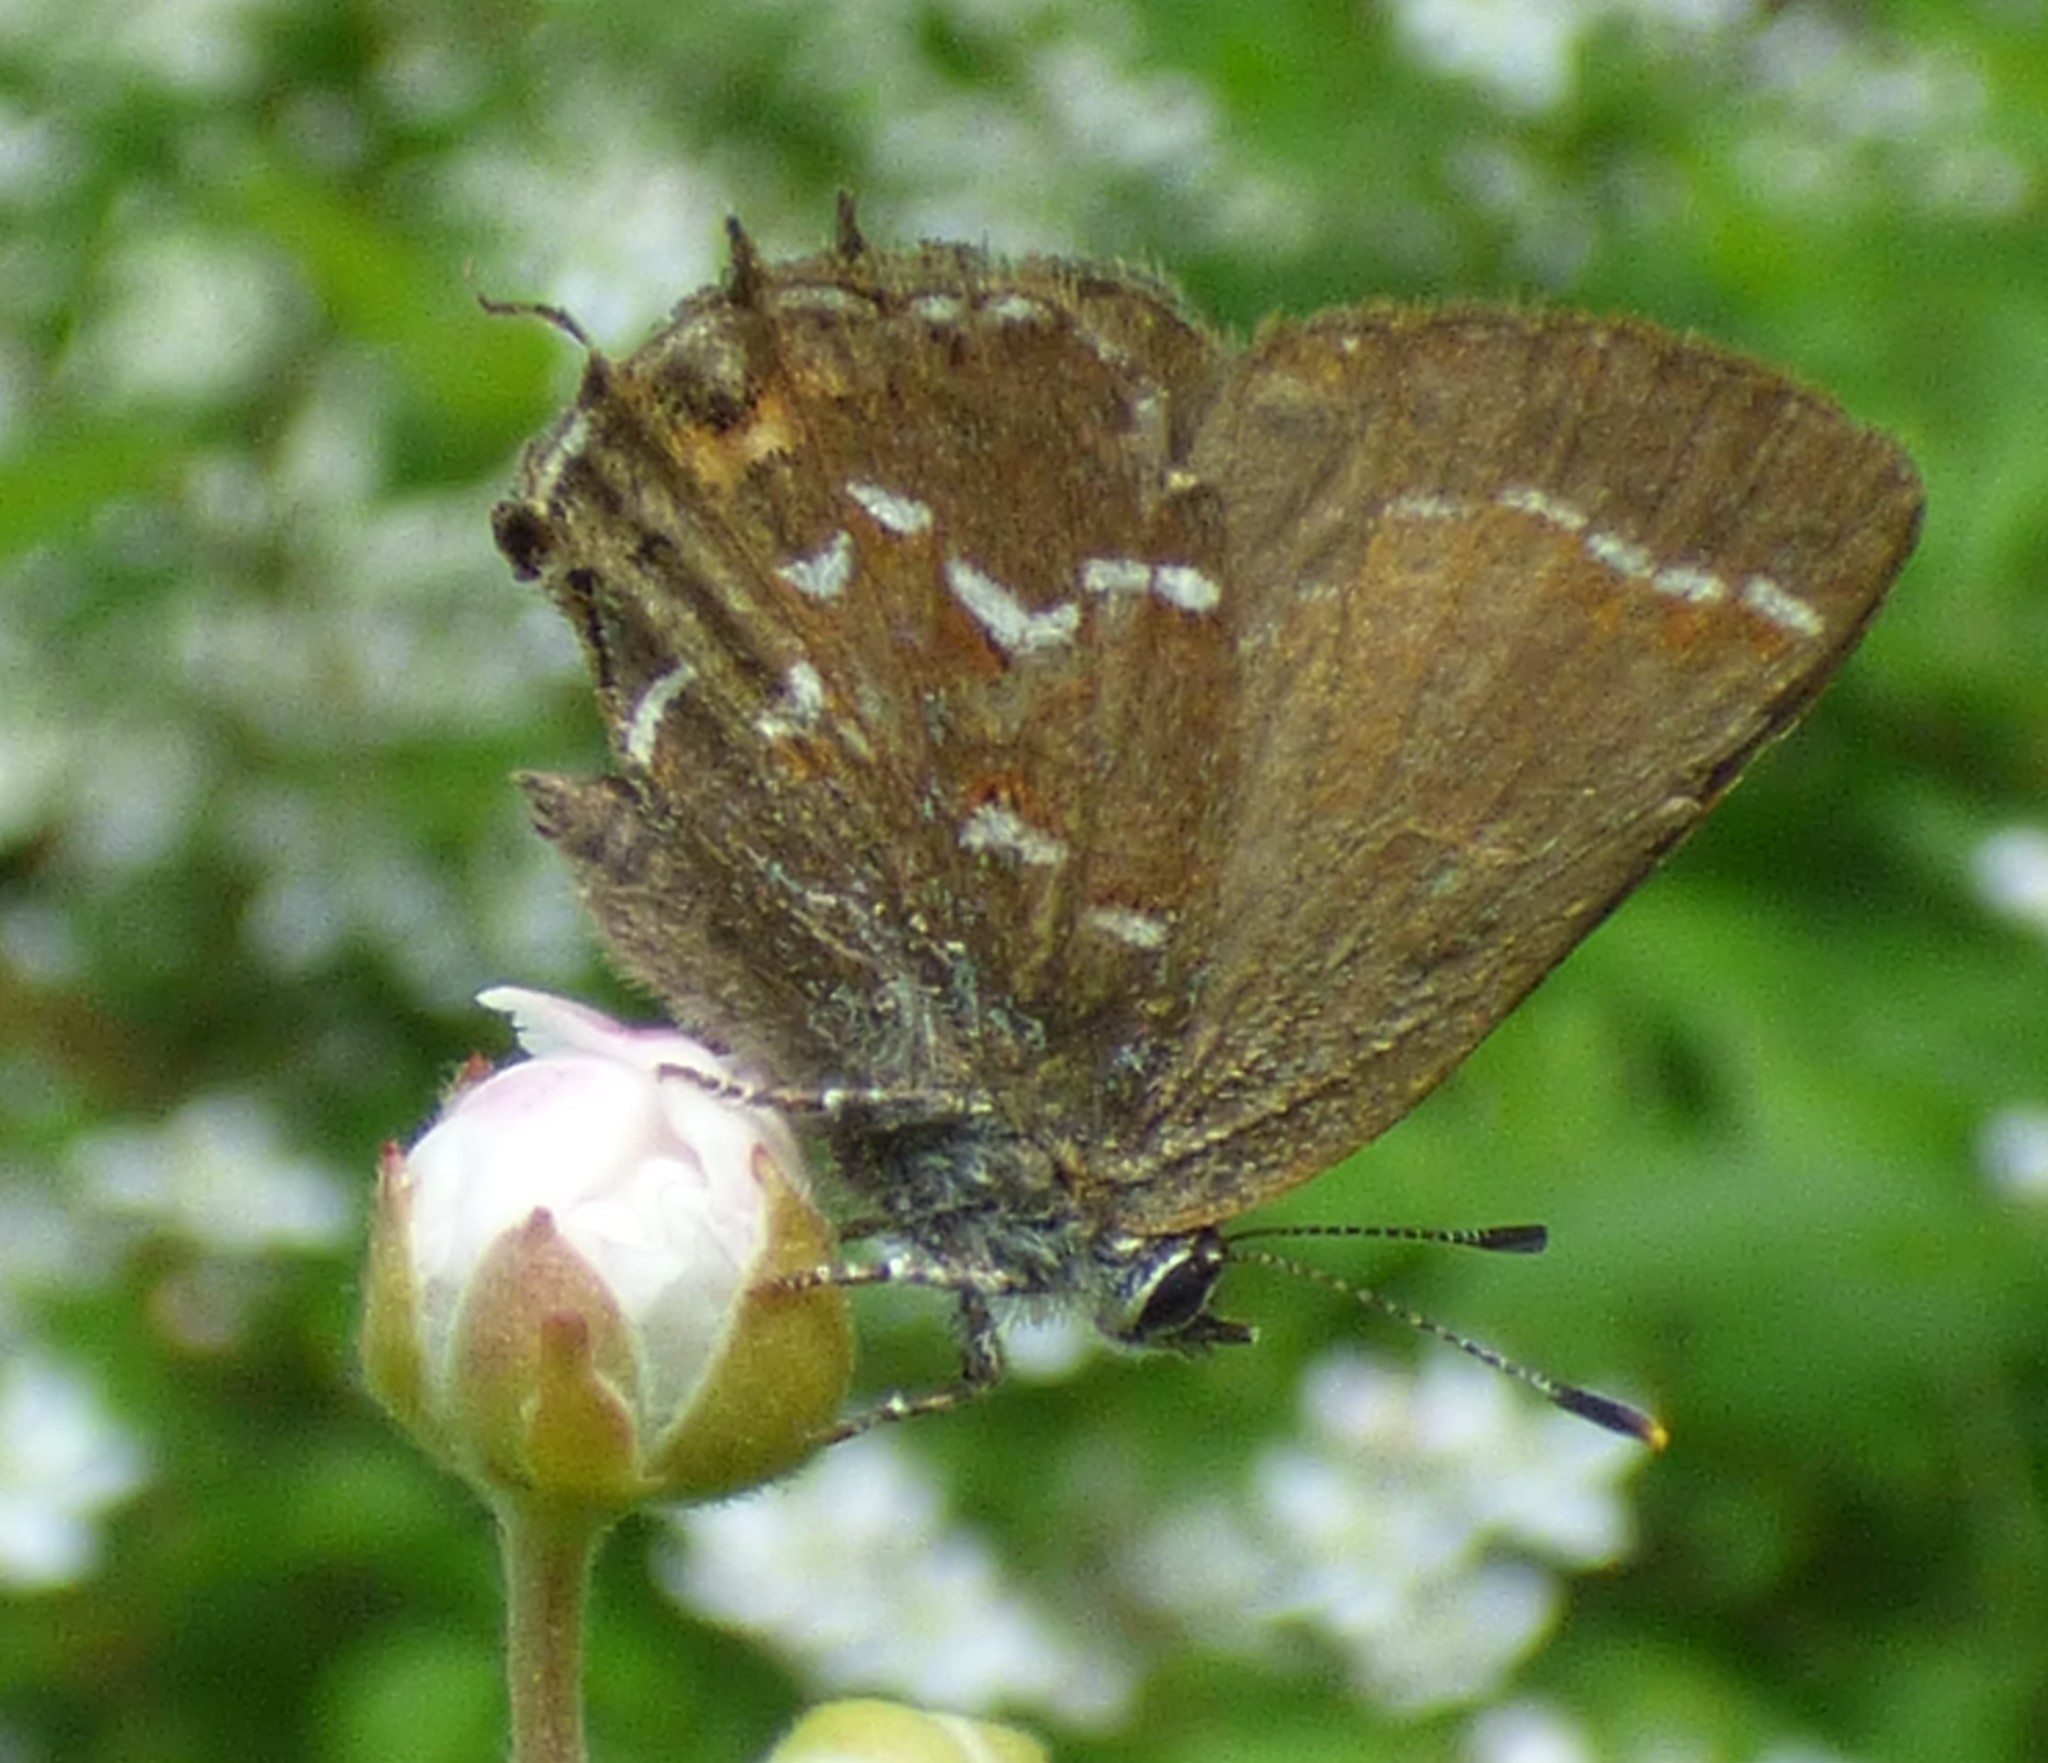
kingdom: Animalia
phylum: Arthropoda
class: Insecta
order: Lepidoptera
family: Lycaenidae
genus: Mitoura
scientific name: Mitoura gryneus
